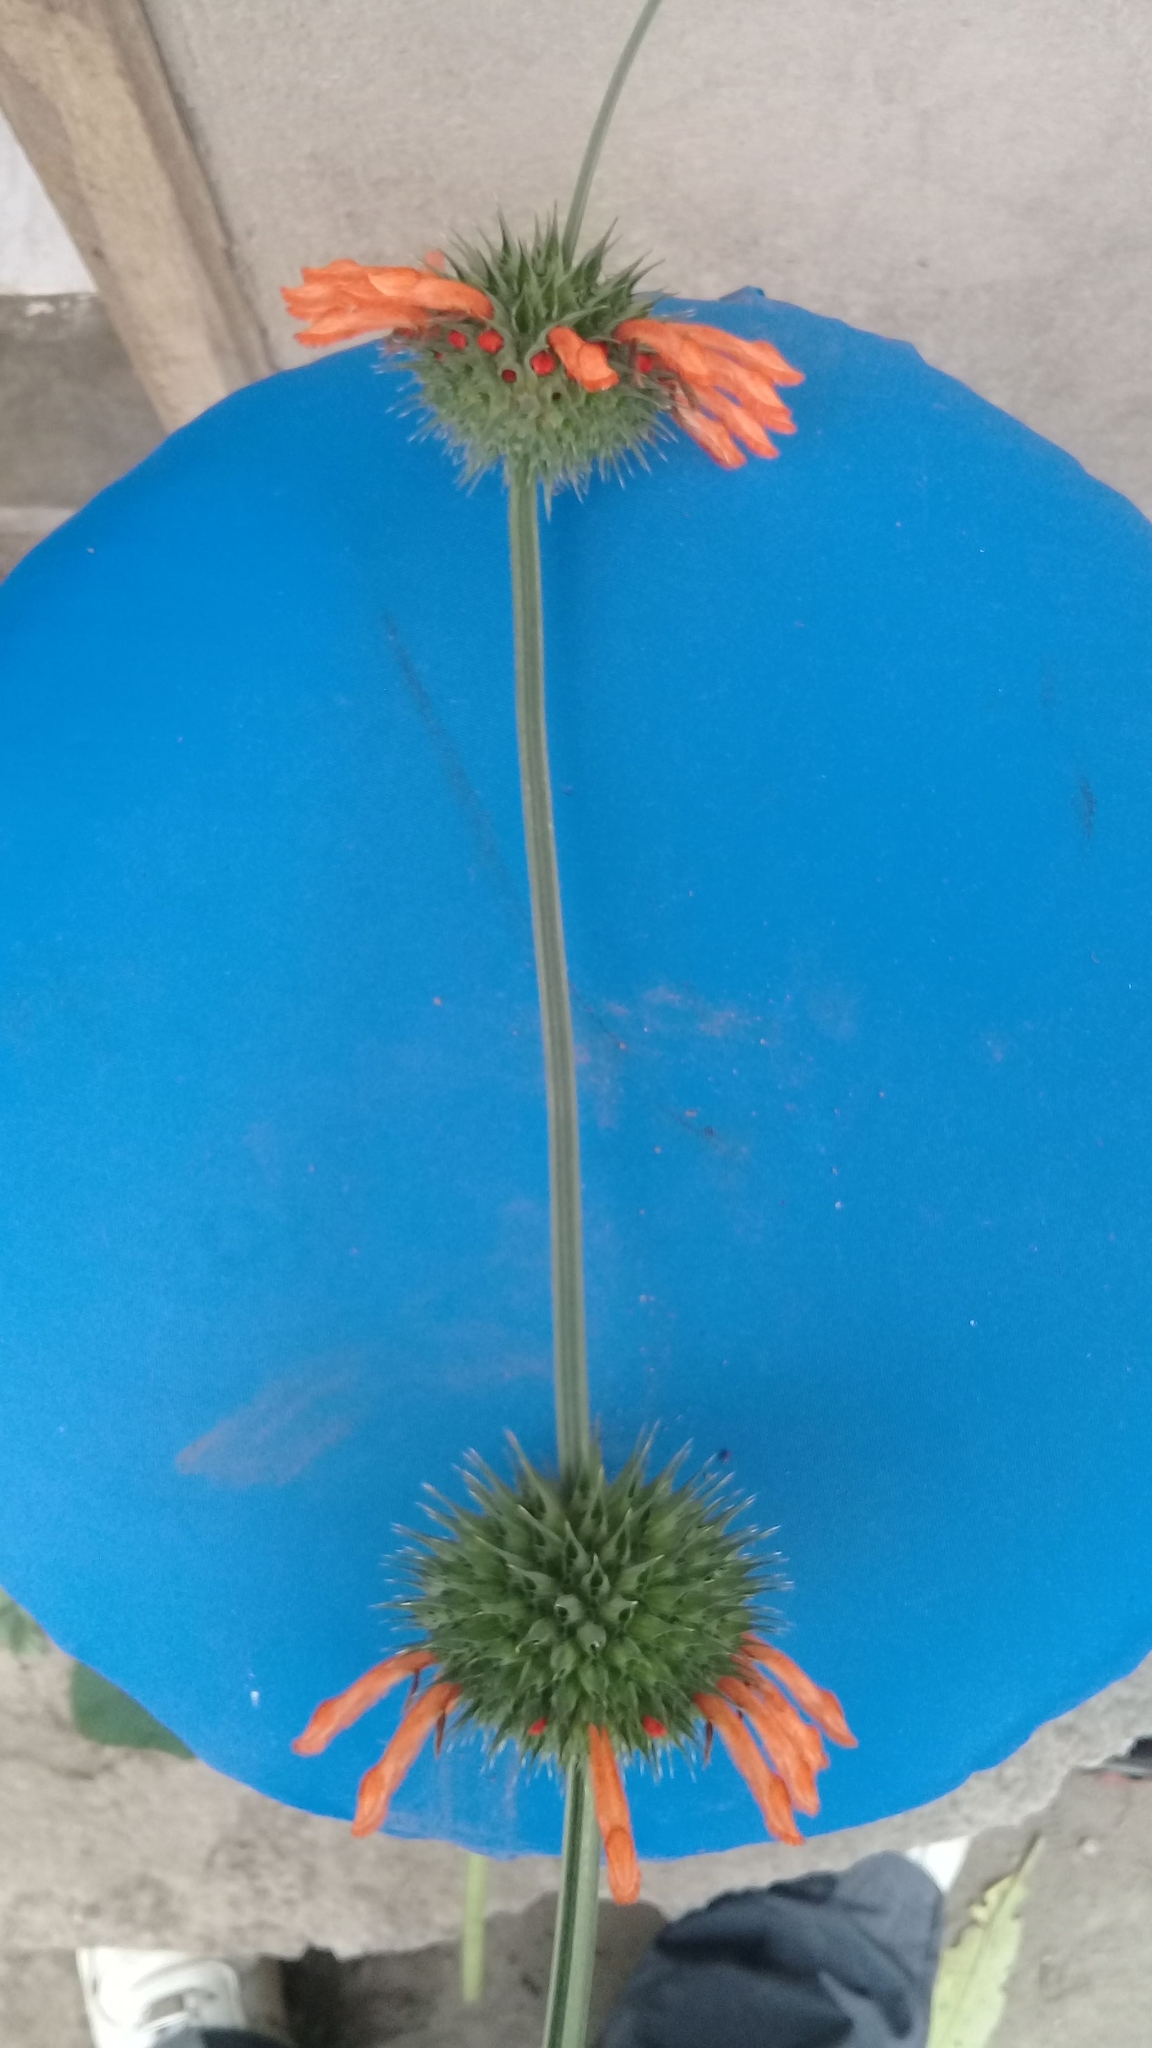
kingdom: Plantae
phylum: Tracheophyta
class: Magnoliopsida
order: Lamiales
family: Lamiaceae
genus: Leonotis
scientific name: Leonotis nepetifolia
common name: Christmas candlestick
